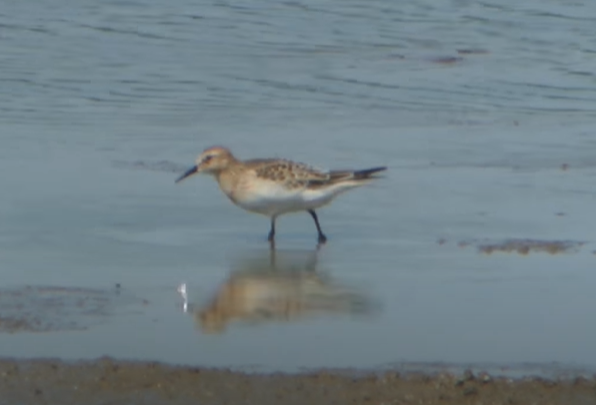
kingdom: Animalia
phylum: Chordata
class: Aves
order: Charadriiformes
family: Scolopacidae
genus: Calidris
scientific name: Calidris bairdii
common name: Baird's sandpiper
